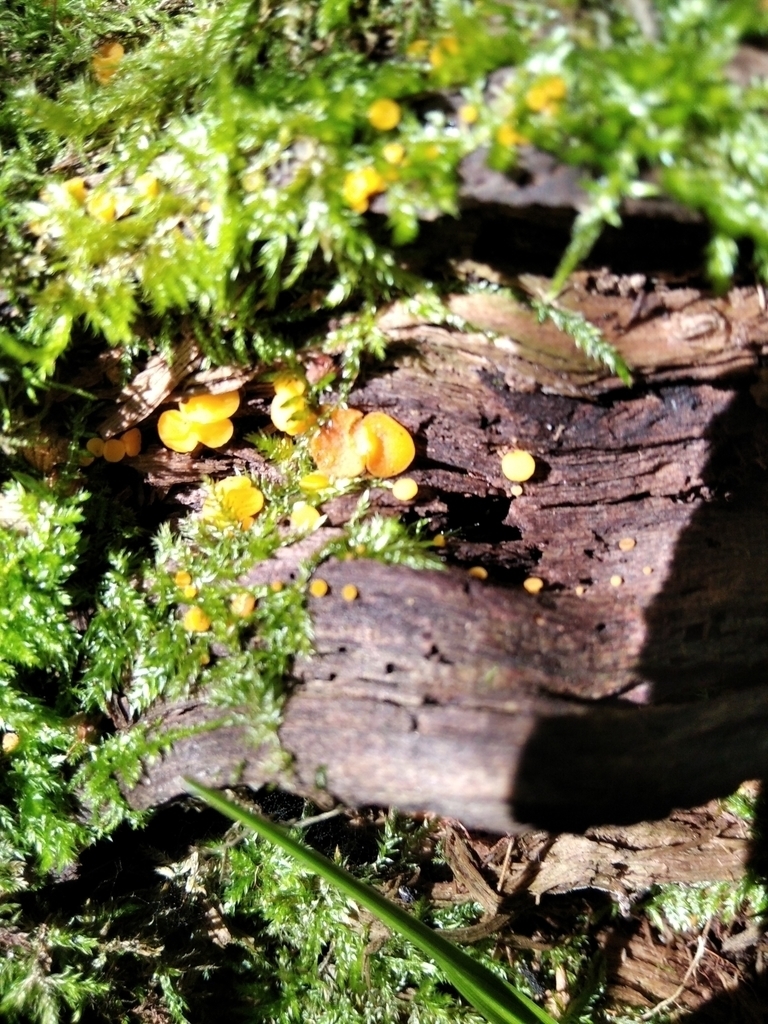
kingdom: Fungi
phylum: Ascomycota
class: Leotiomycetes
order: Helotiales
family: Pezizellaceae
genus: Calycina
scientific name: Calycina citrina
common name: Yellow fairy cups
